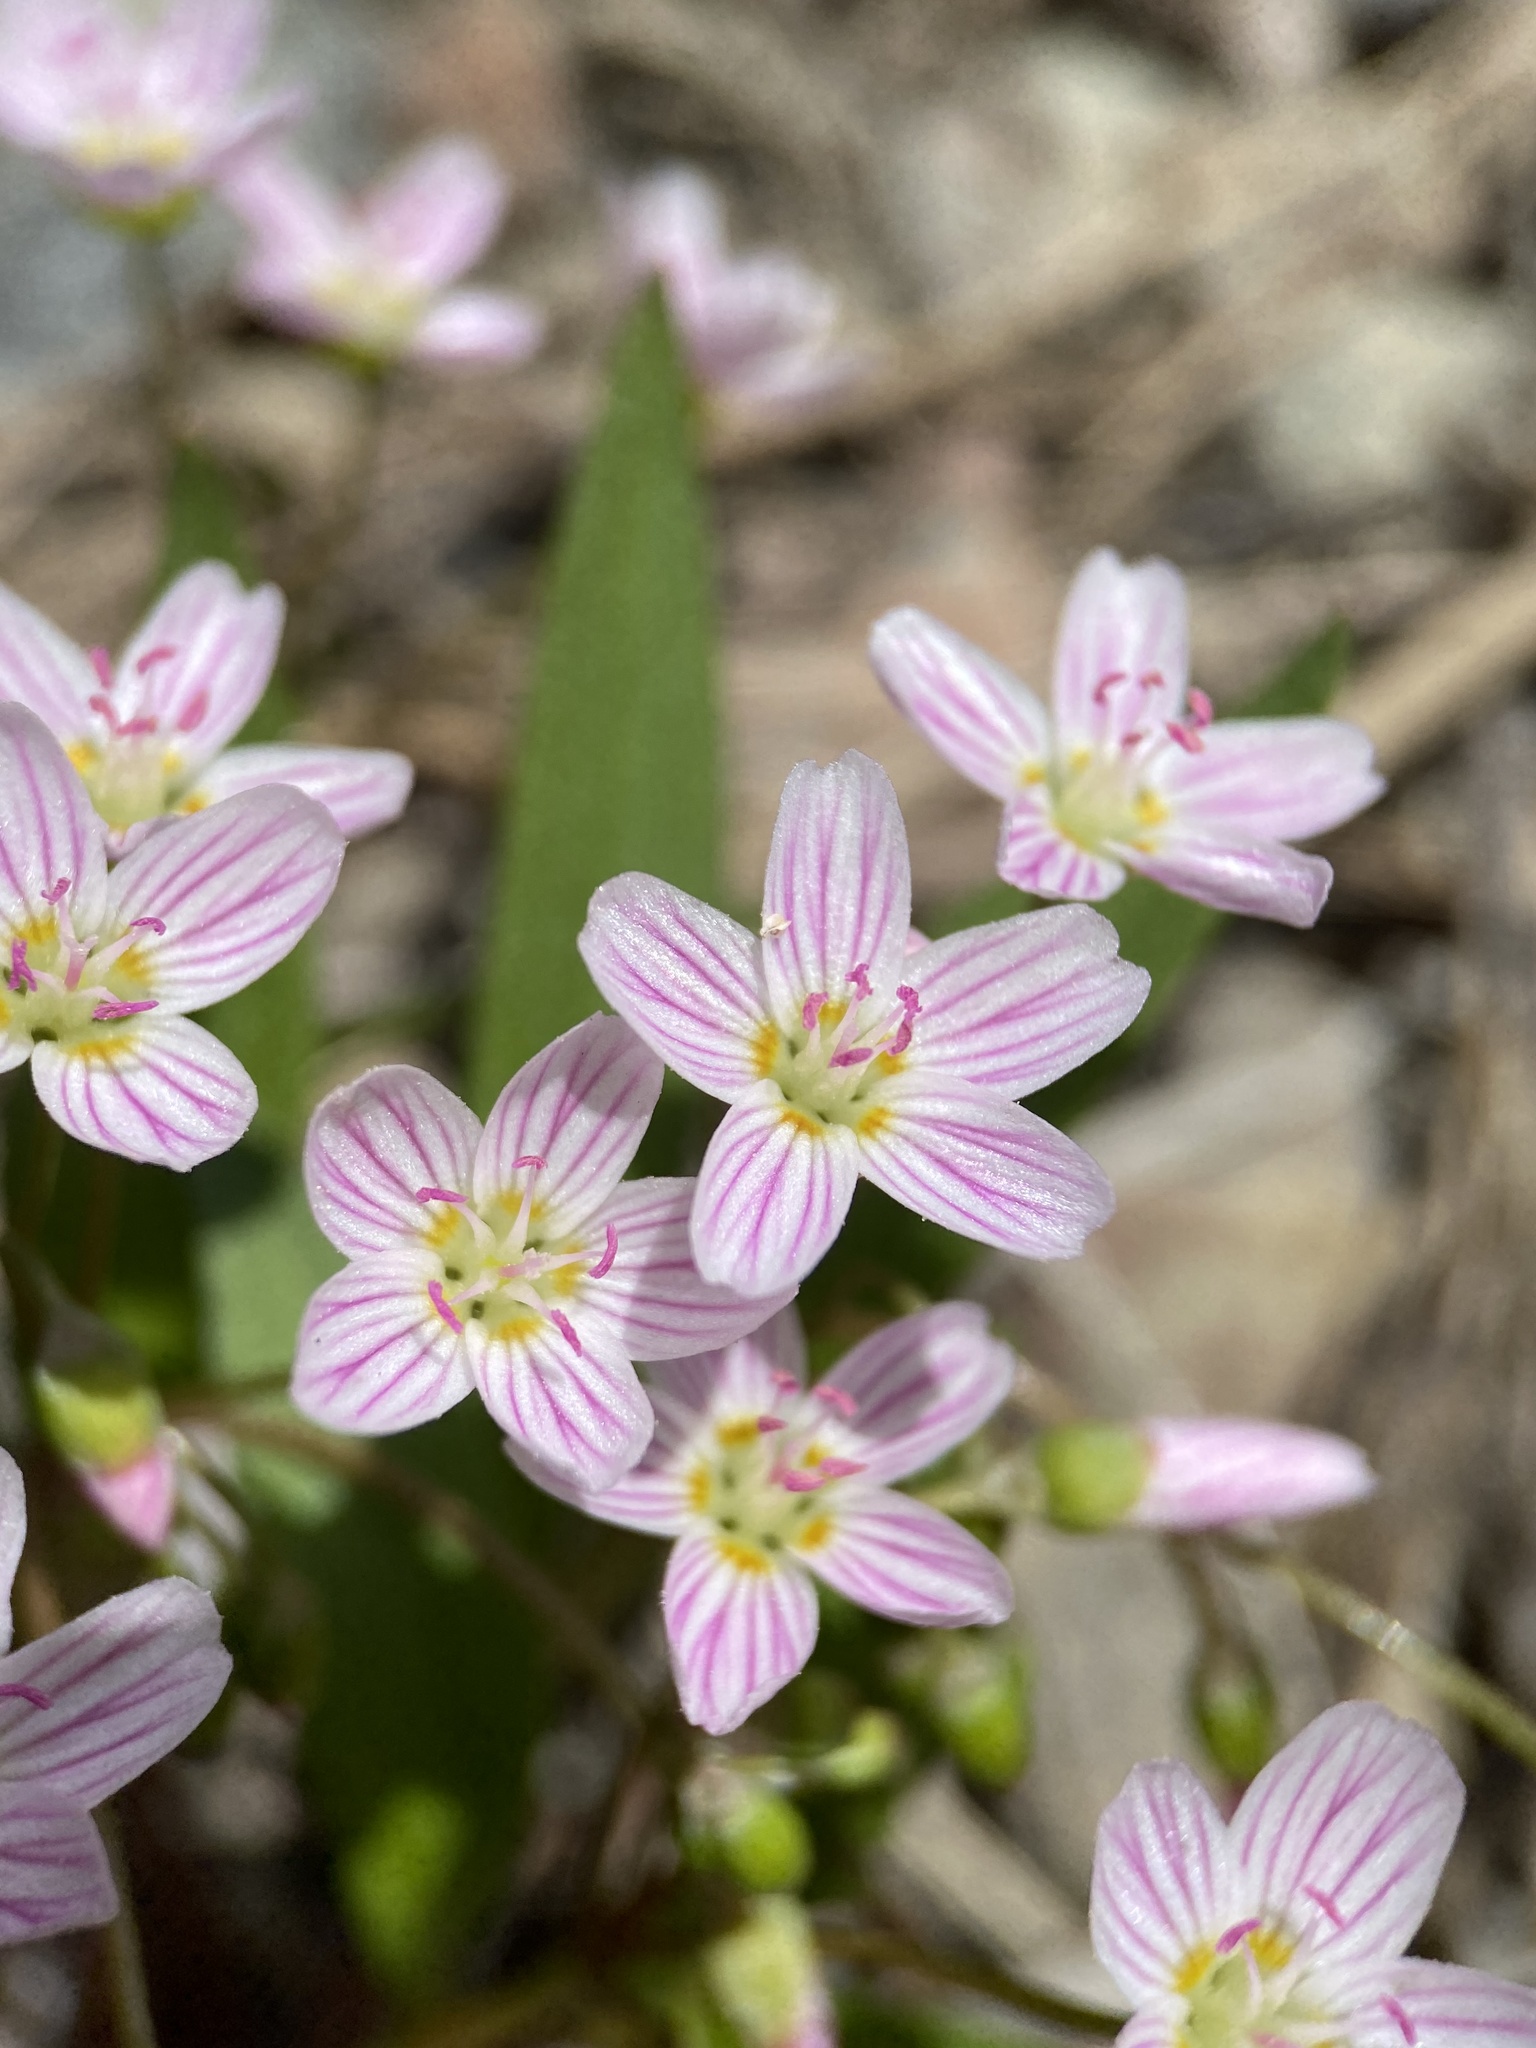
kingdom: Plantae
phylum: Tracheophyta
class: Magnoliopsida
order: Caryophyllales
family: Montiaceae
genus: Claytonia
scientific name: Claytonia lanceolata
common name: Western spring-beauty
